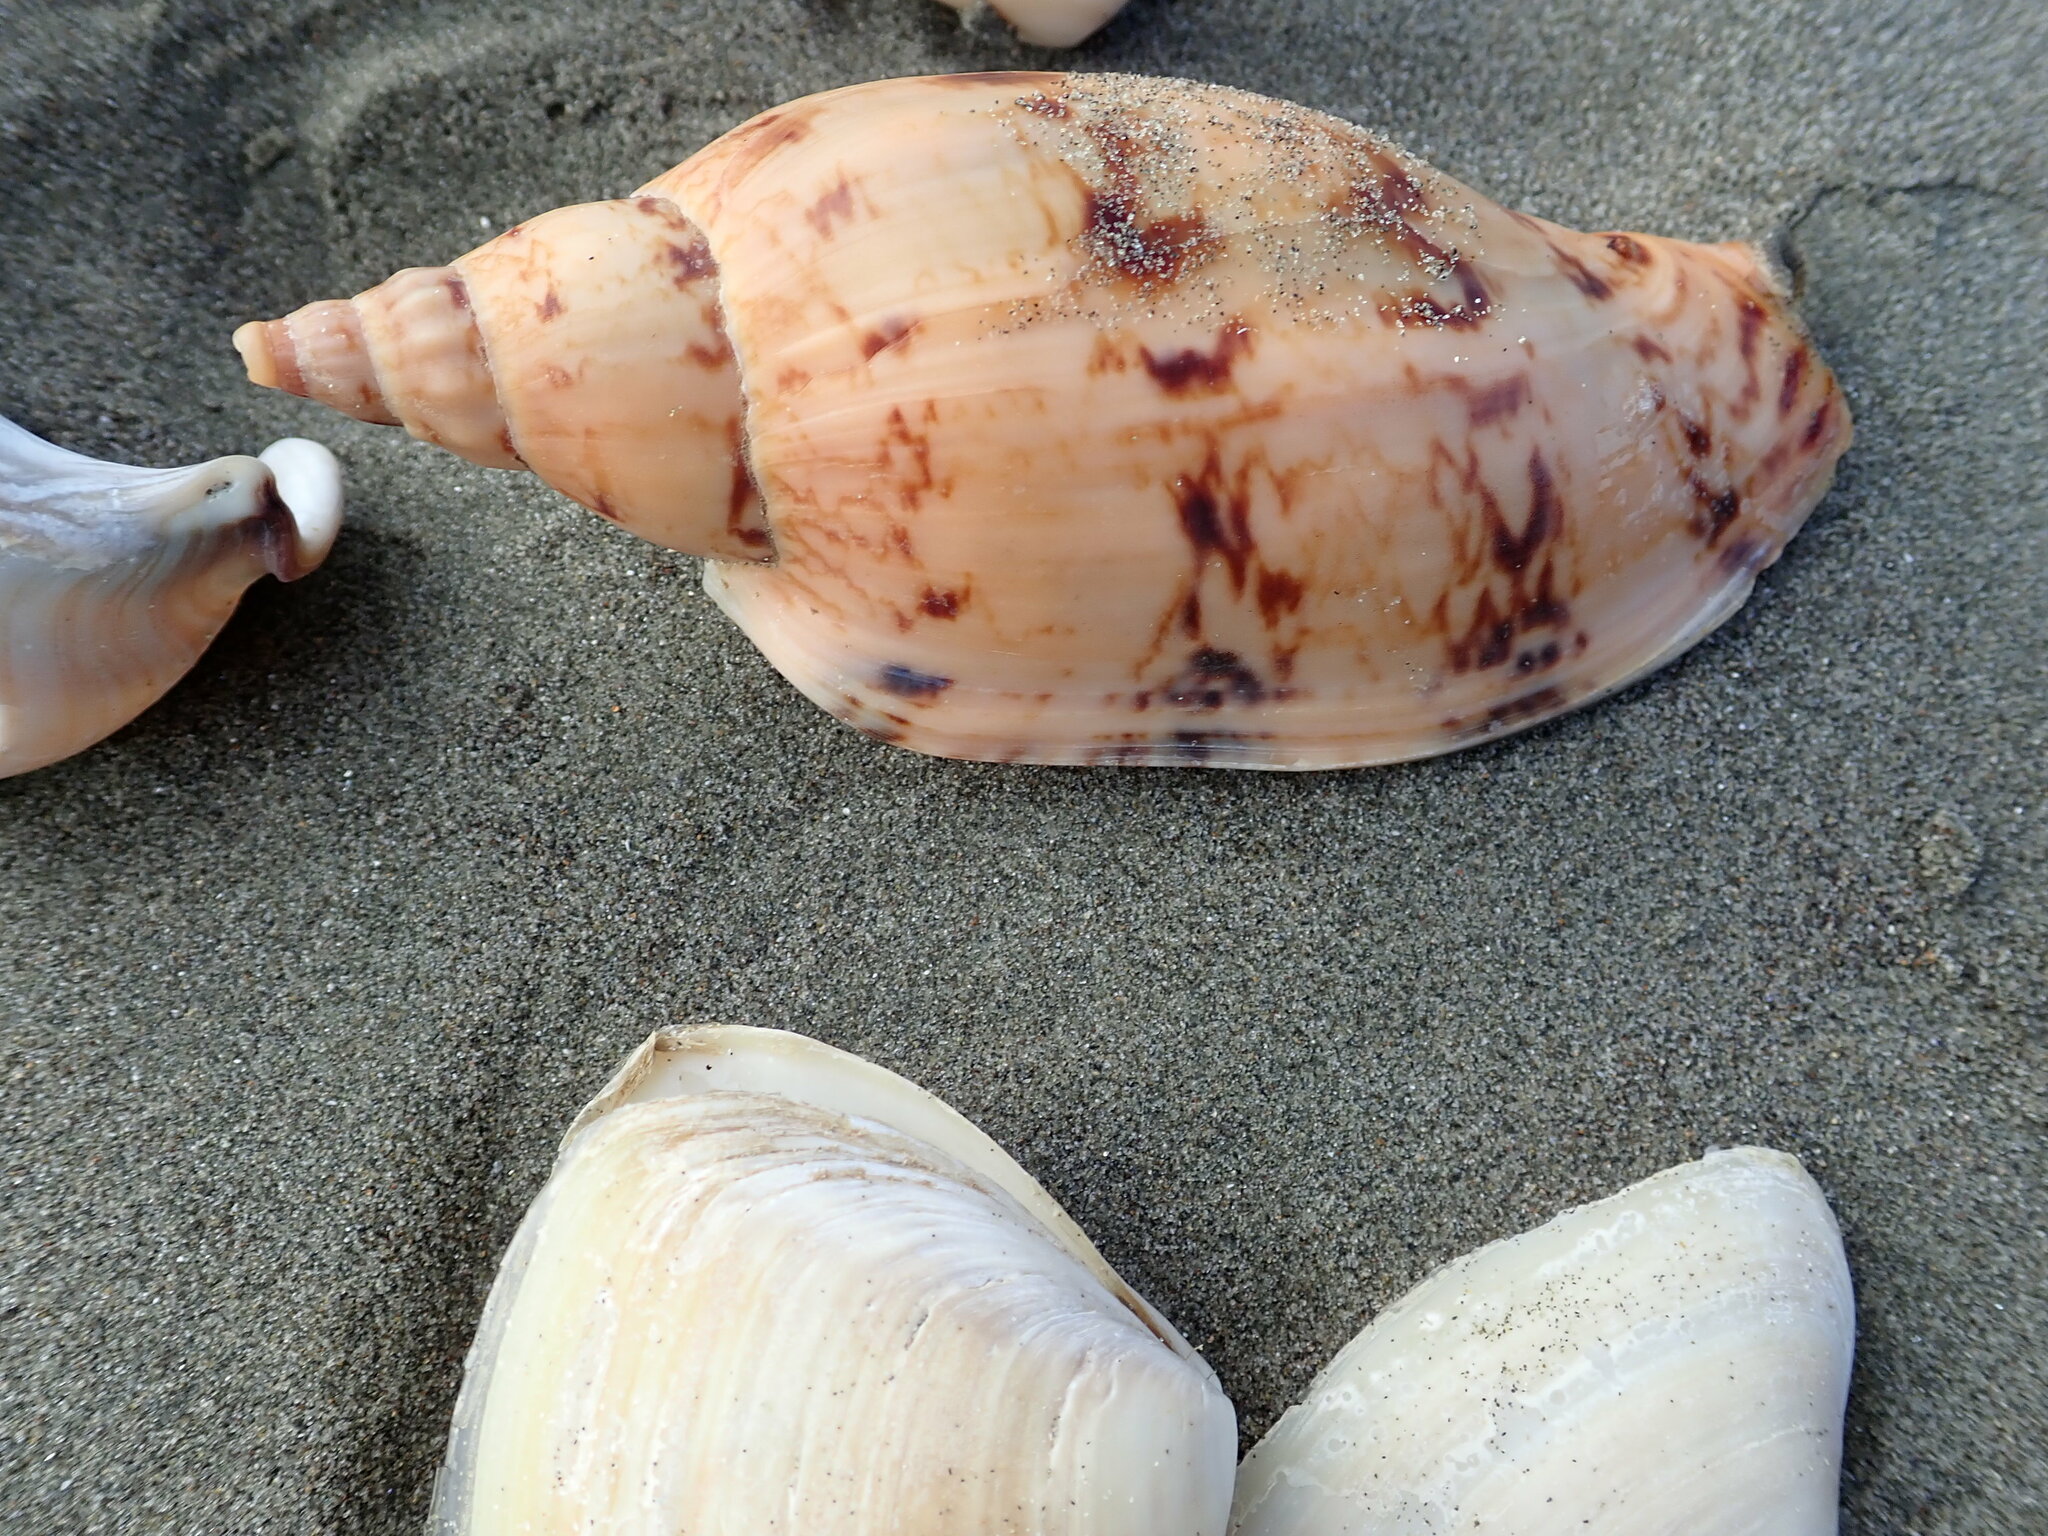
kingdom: Animalia
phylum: Mollusca
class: Gastropoda
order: Neogastropoda
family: Volutidae
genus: Alcithoe
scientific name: Alcithoe arabica
